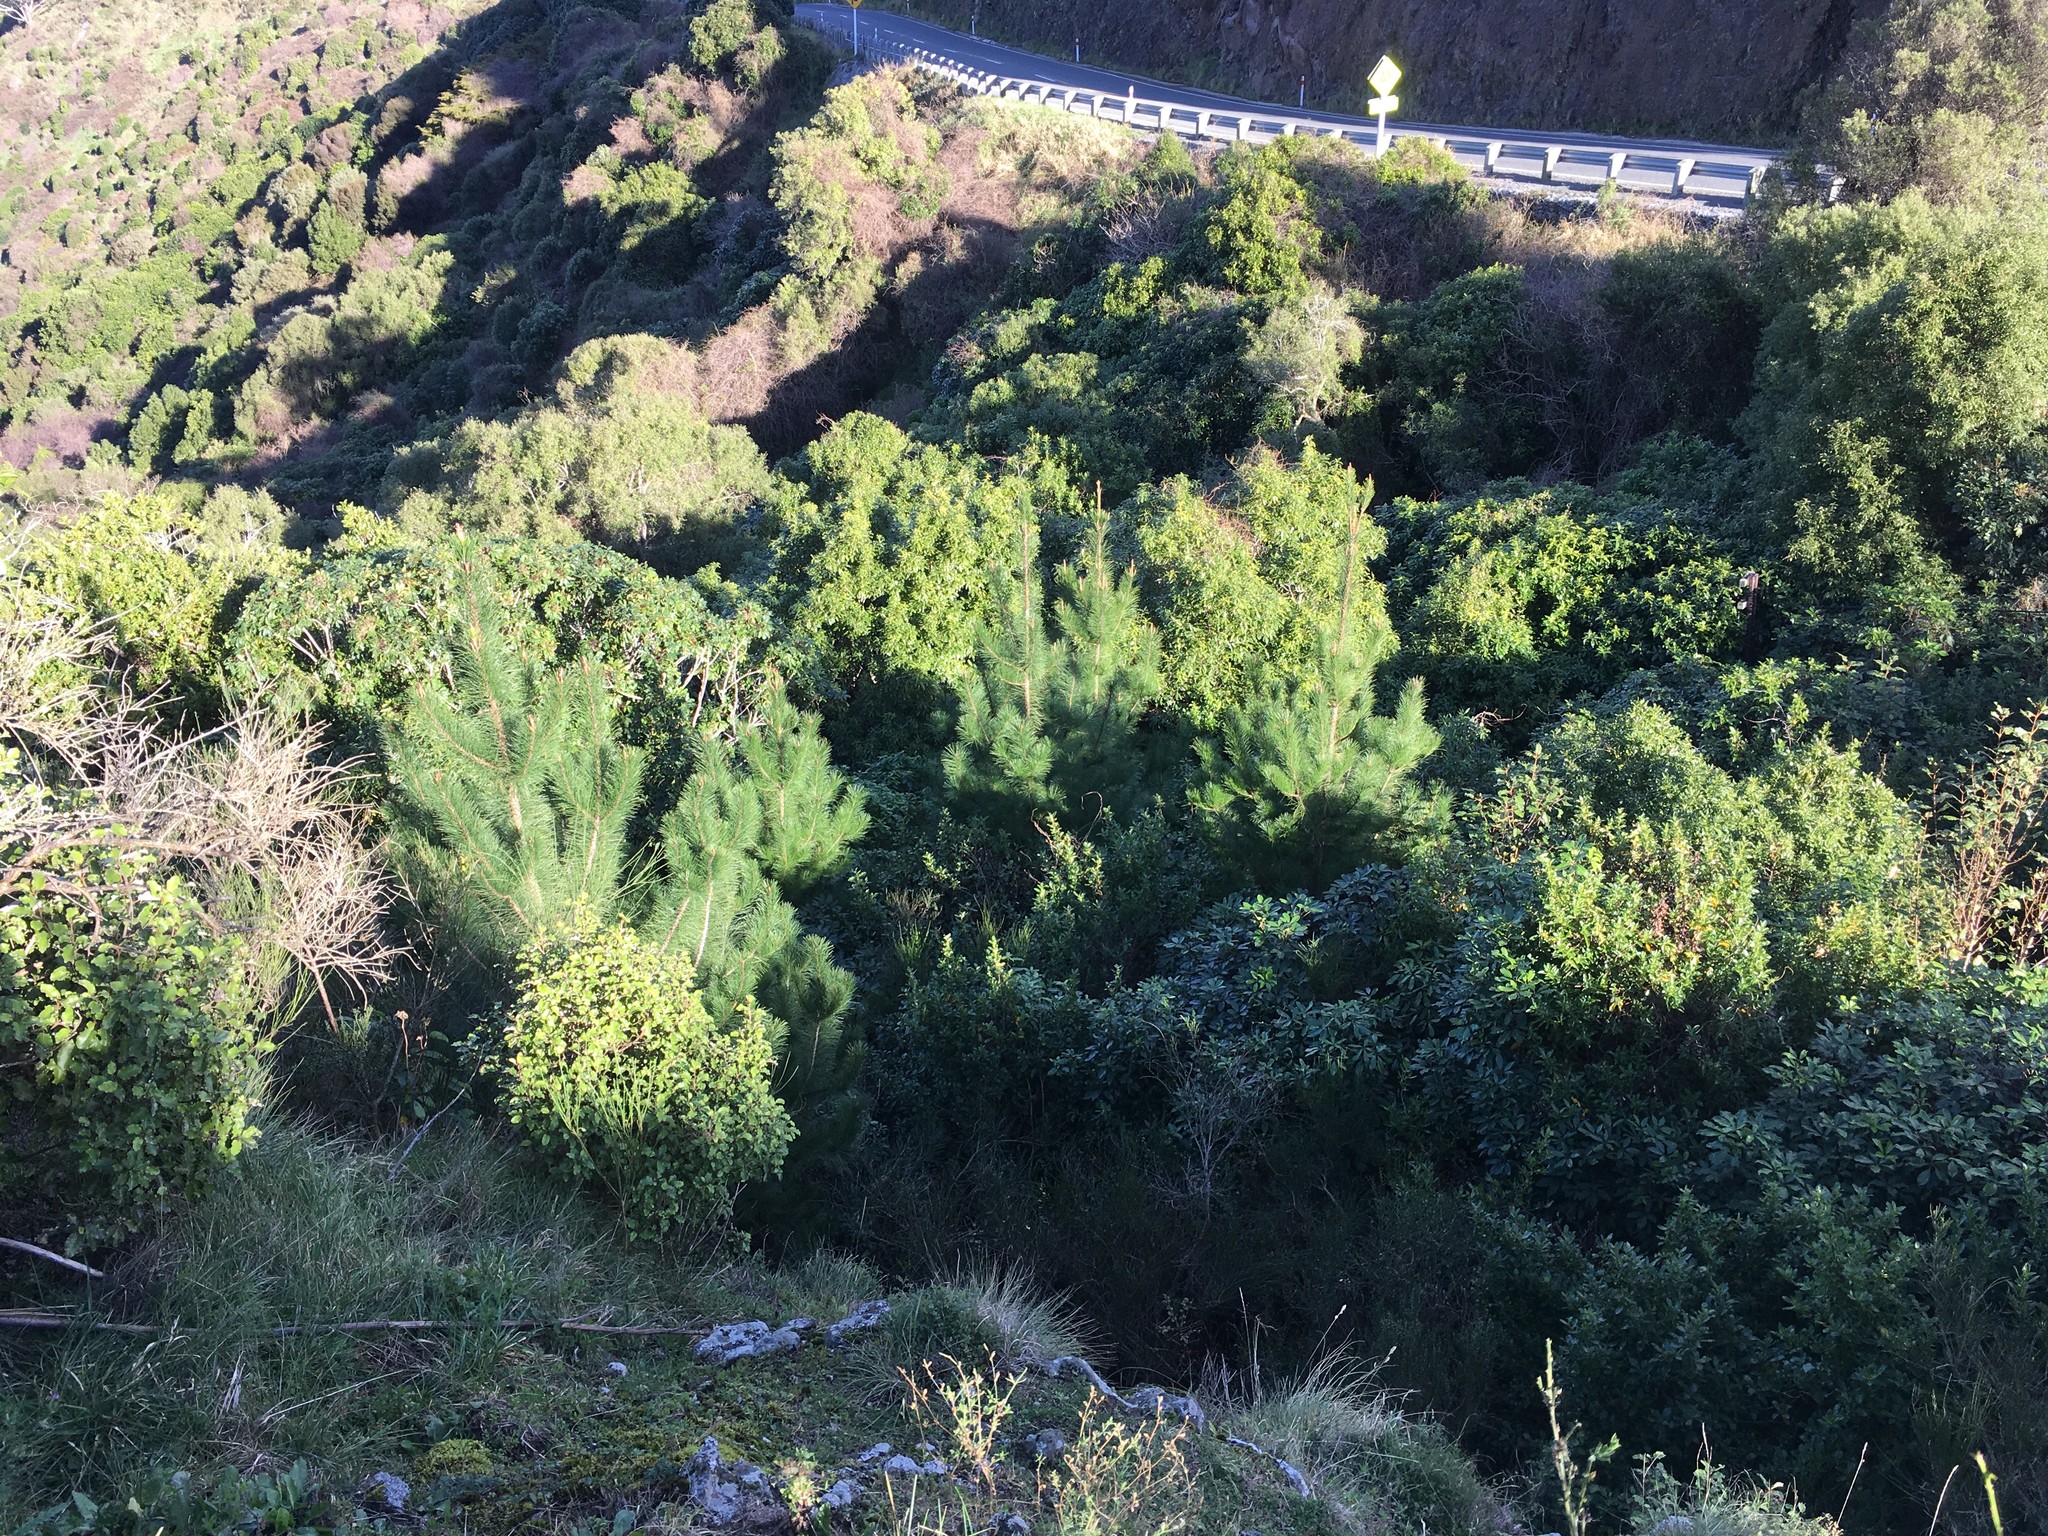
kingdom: Plantae
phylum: Tracheophyta
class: Pinopsida
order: Pinales
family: Pinaceae
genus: Pinus
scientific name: Pinus radiata
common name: Monterey pine
